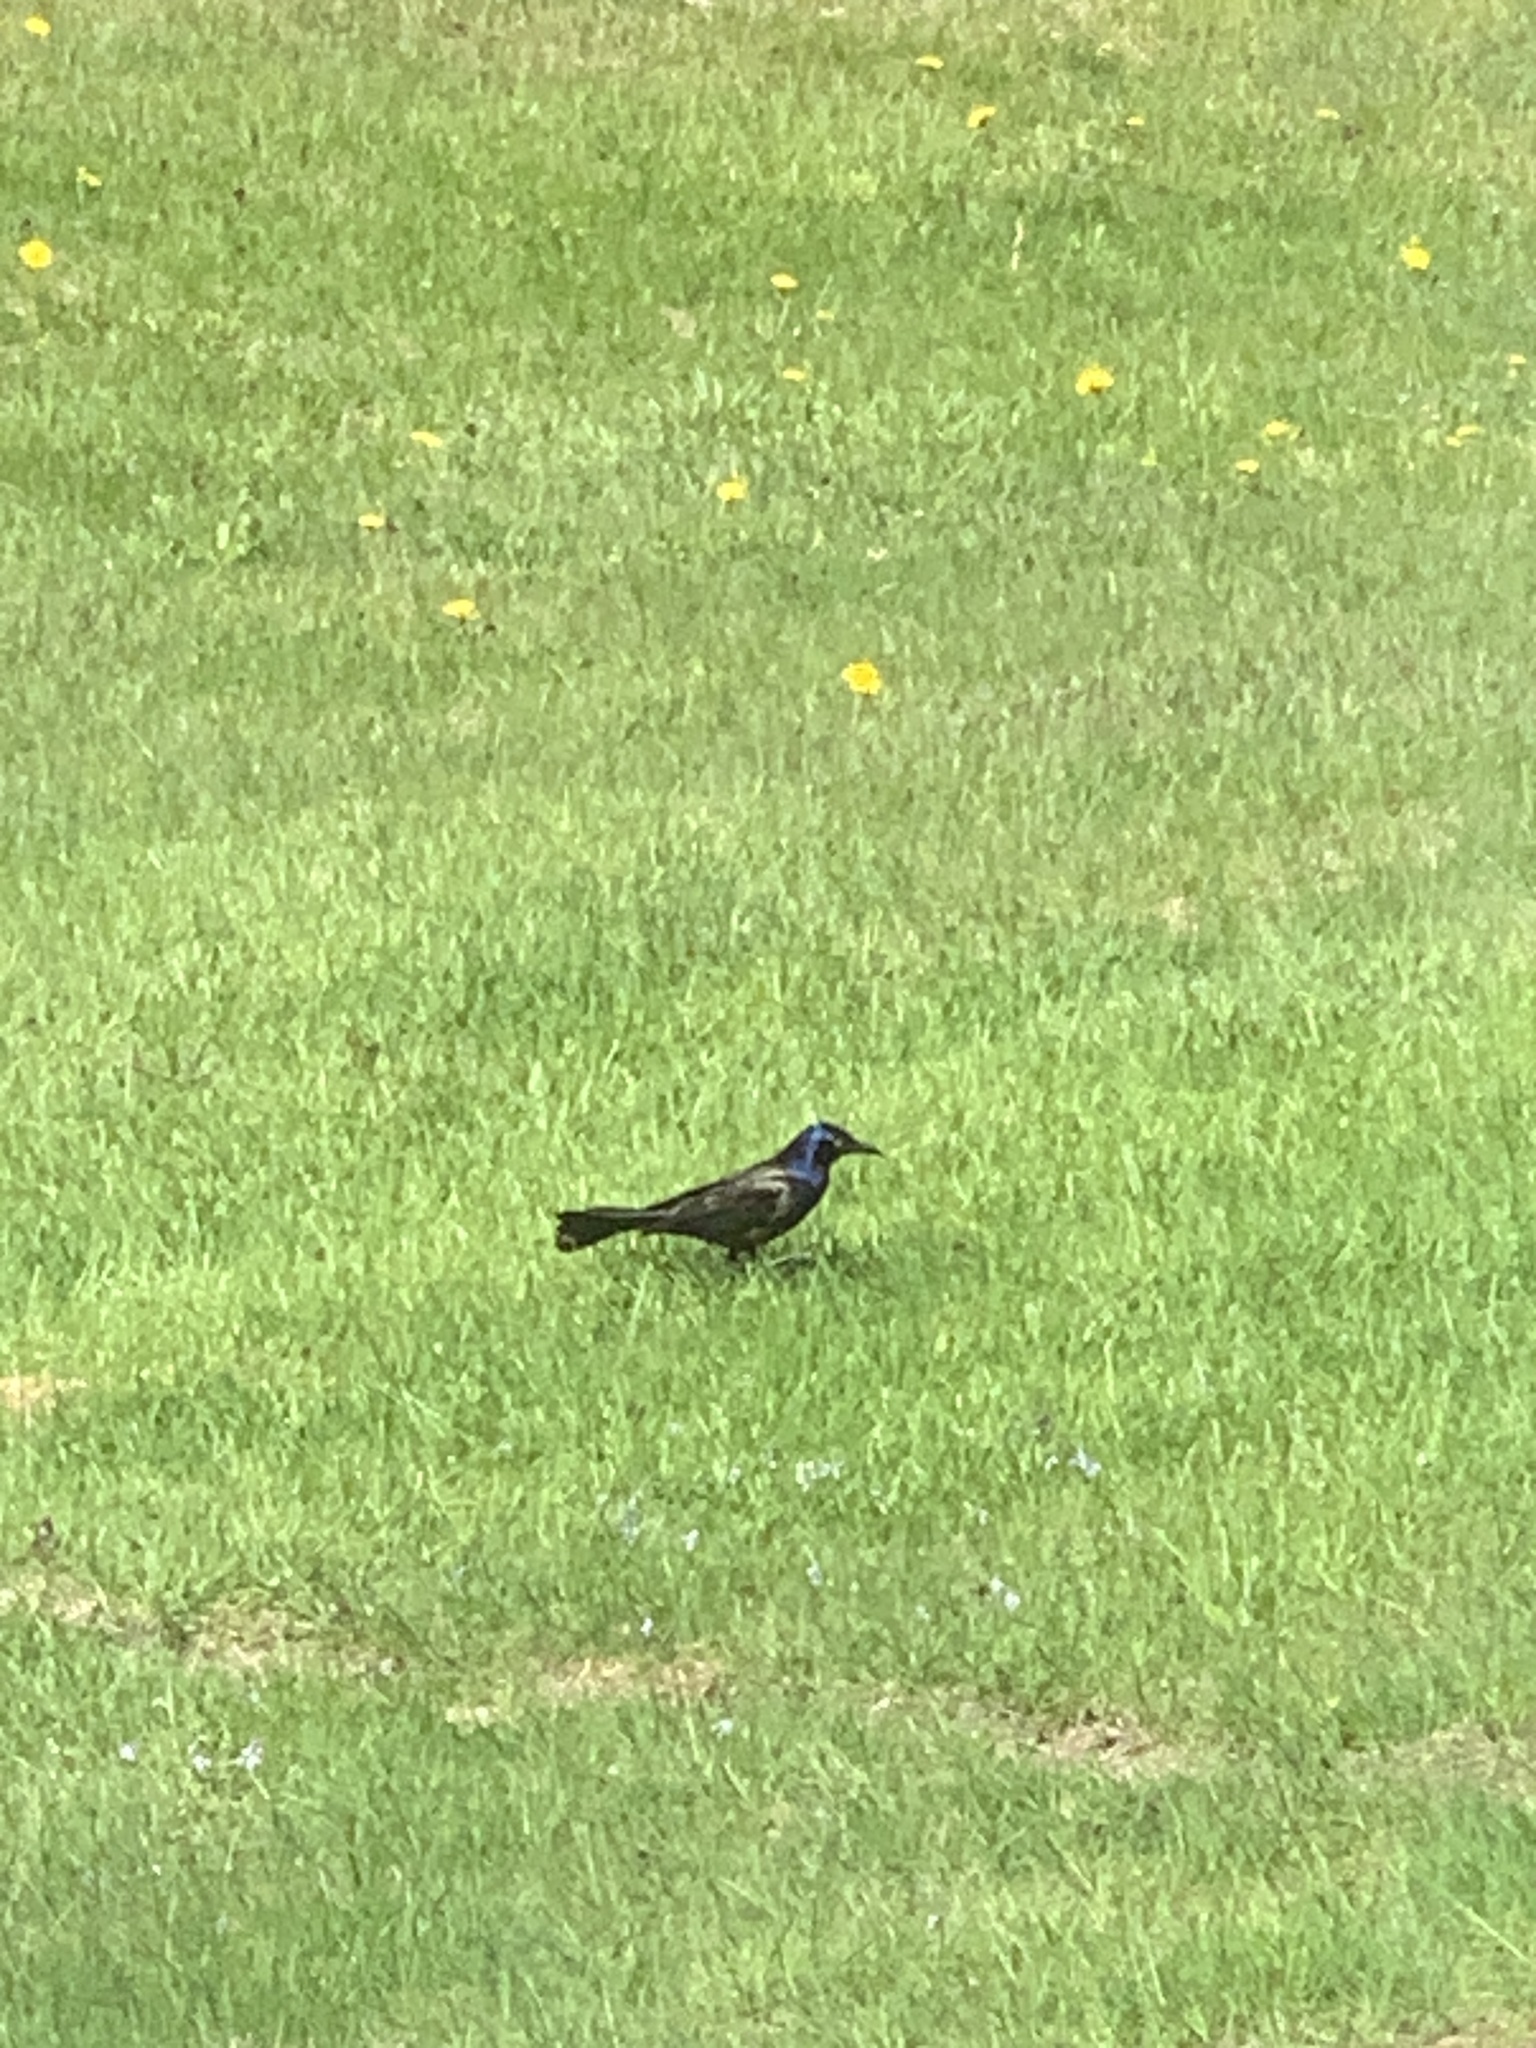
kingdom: Animalia
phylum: Chordata
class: Aves
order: Passeriformes
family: Icteridae
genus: Quiscalus
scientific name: Quiscalus quiscula
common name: Common grackle
